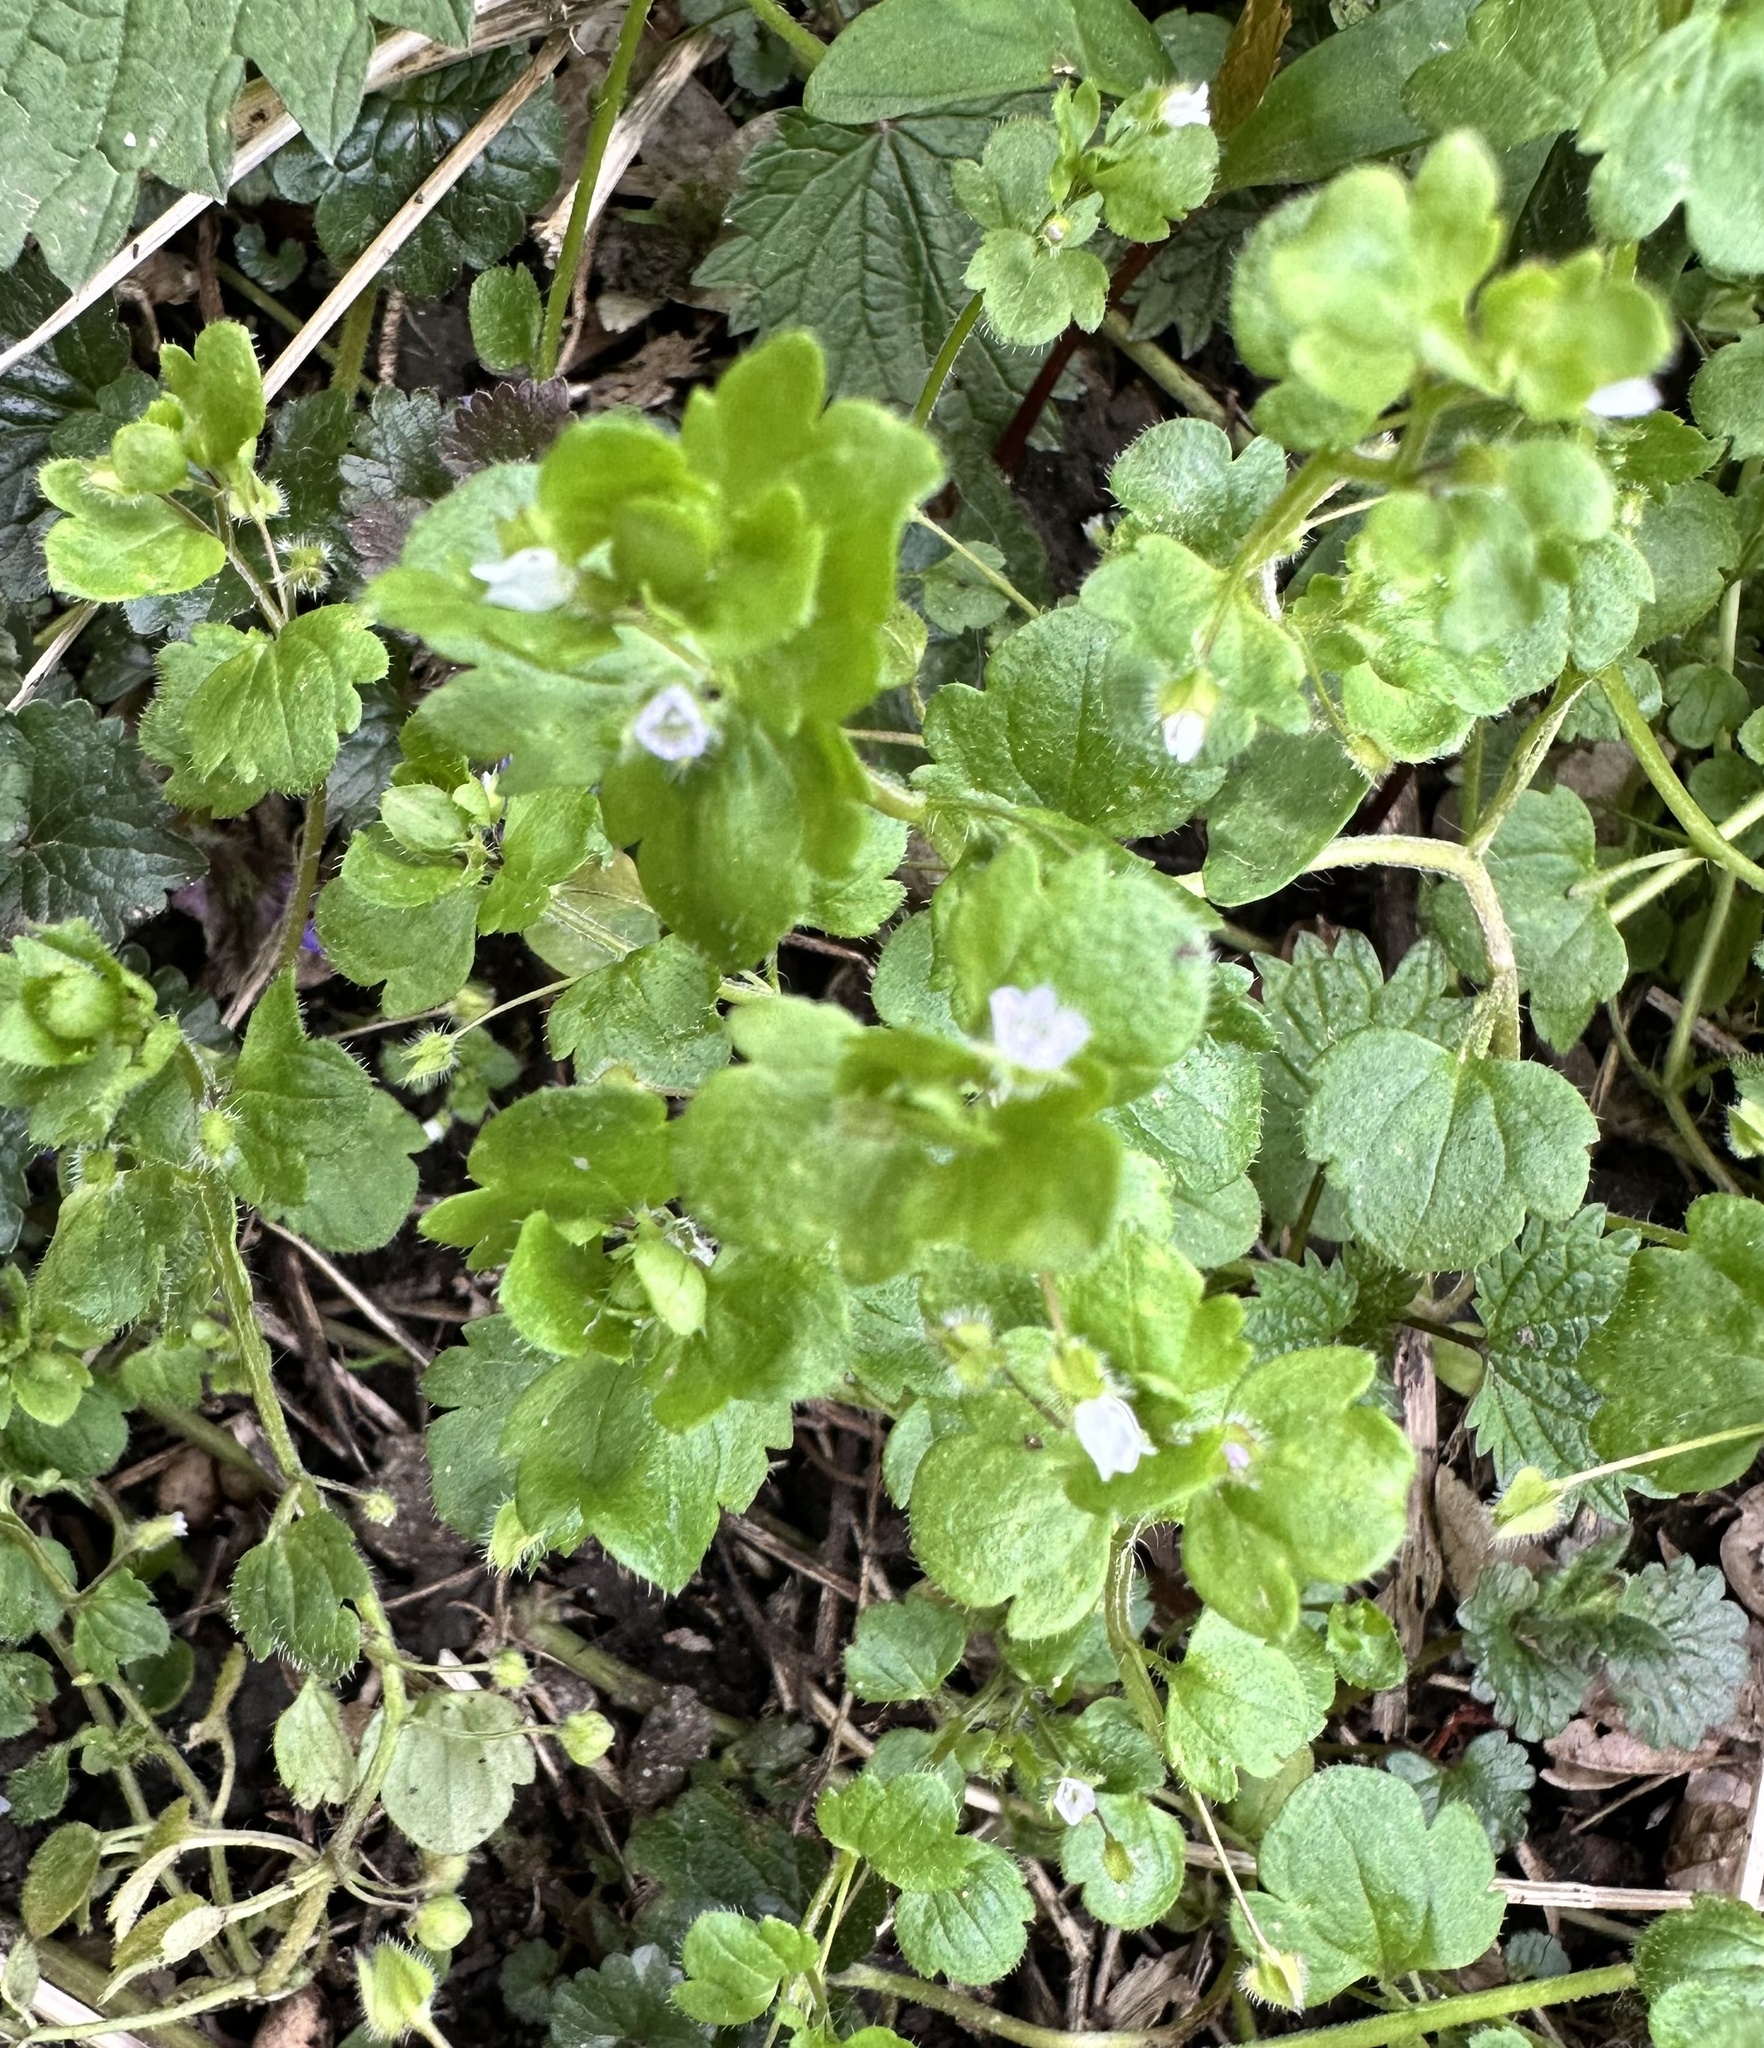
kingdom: Plantae
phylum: Tracheophyta
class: Magnoliopsida
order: Lamiales
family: Plantaginaceae
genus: Veronica
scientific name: Veronica sublobata
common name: False ivy-leaved speedwell
